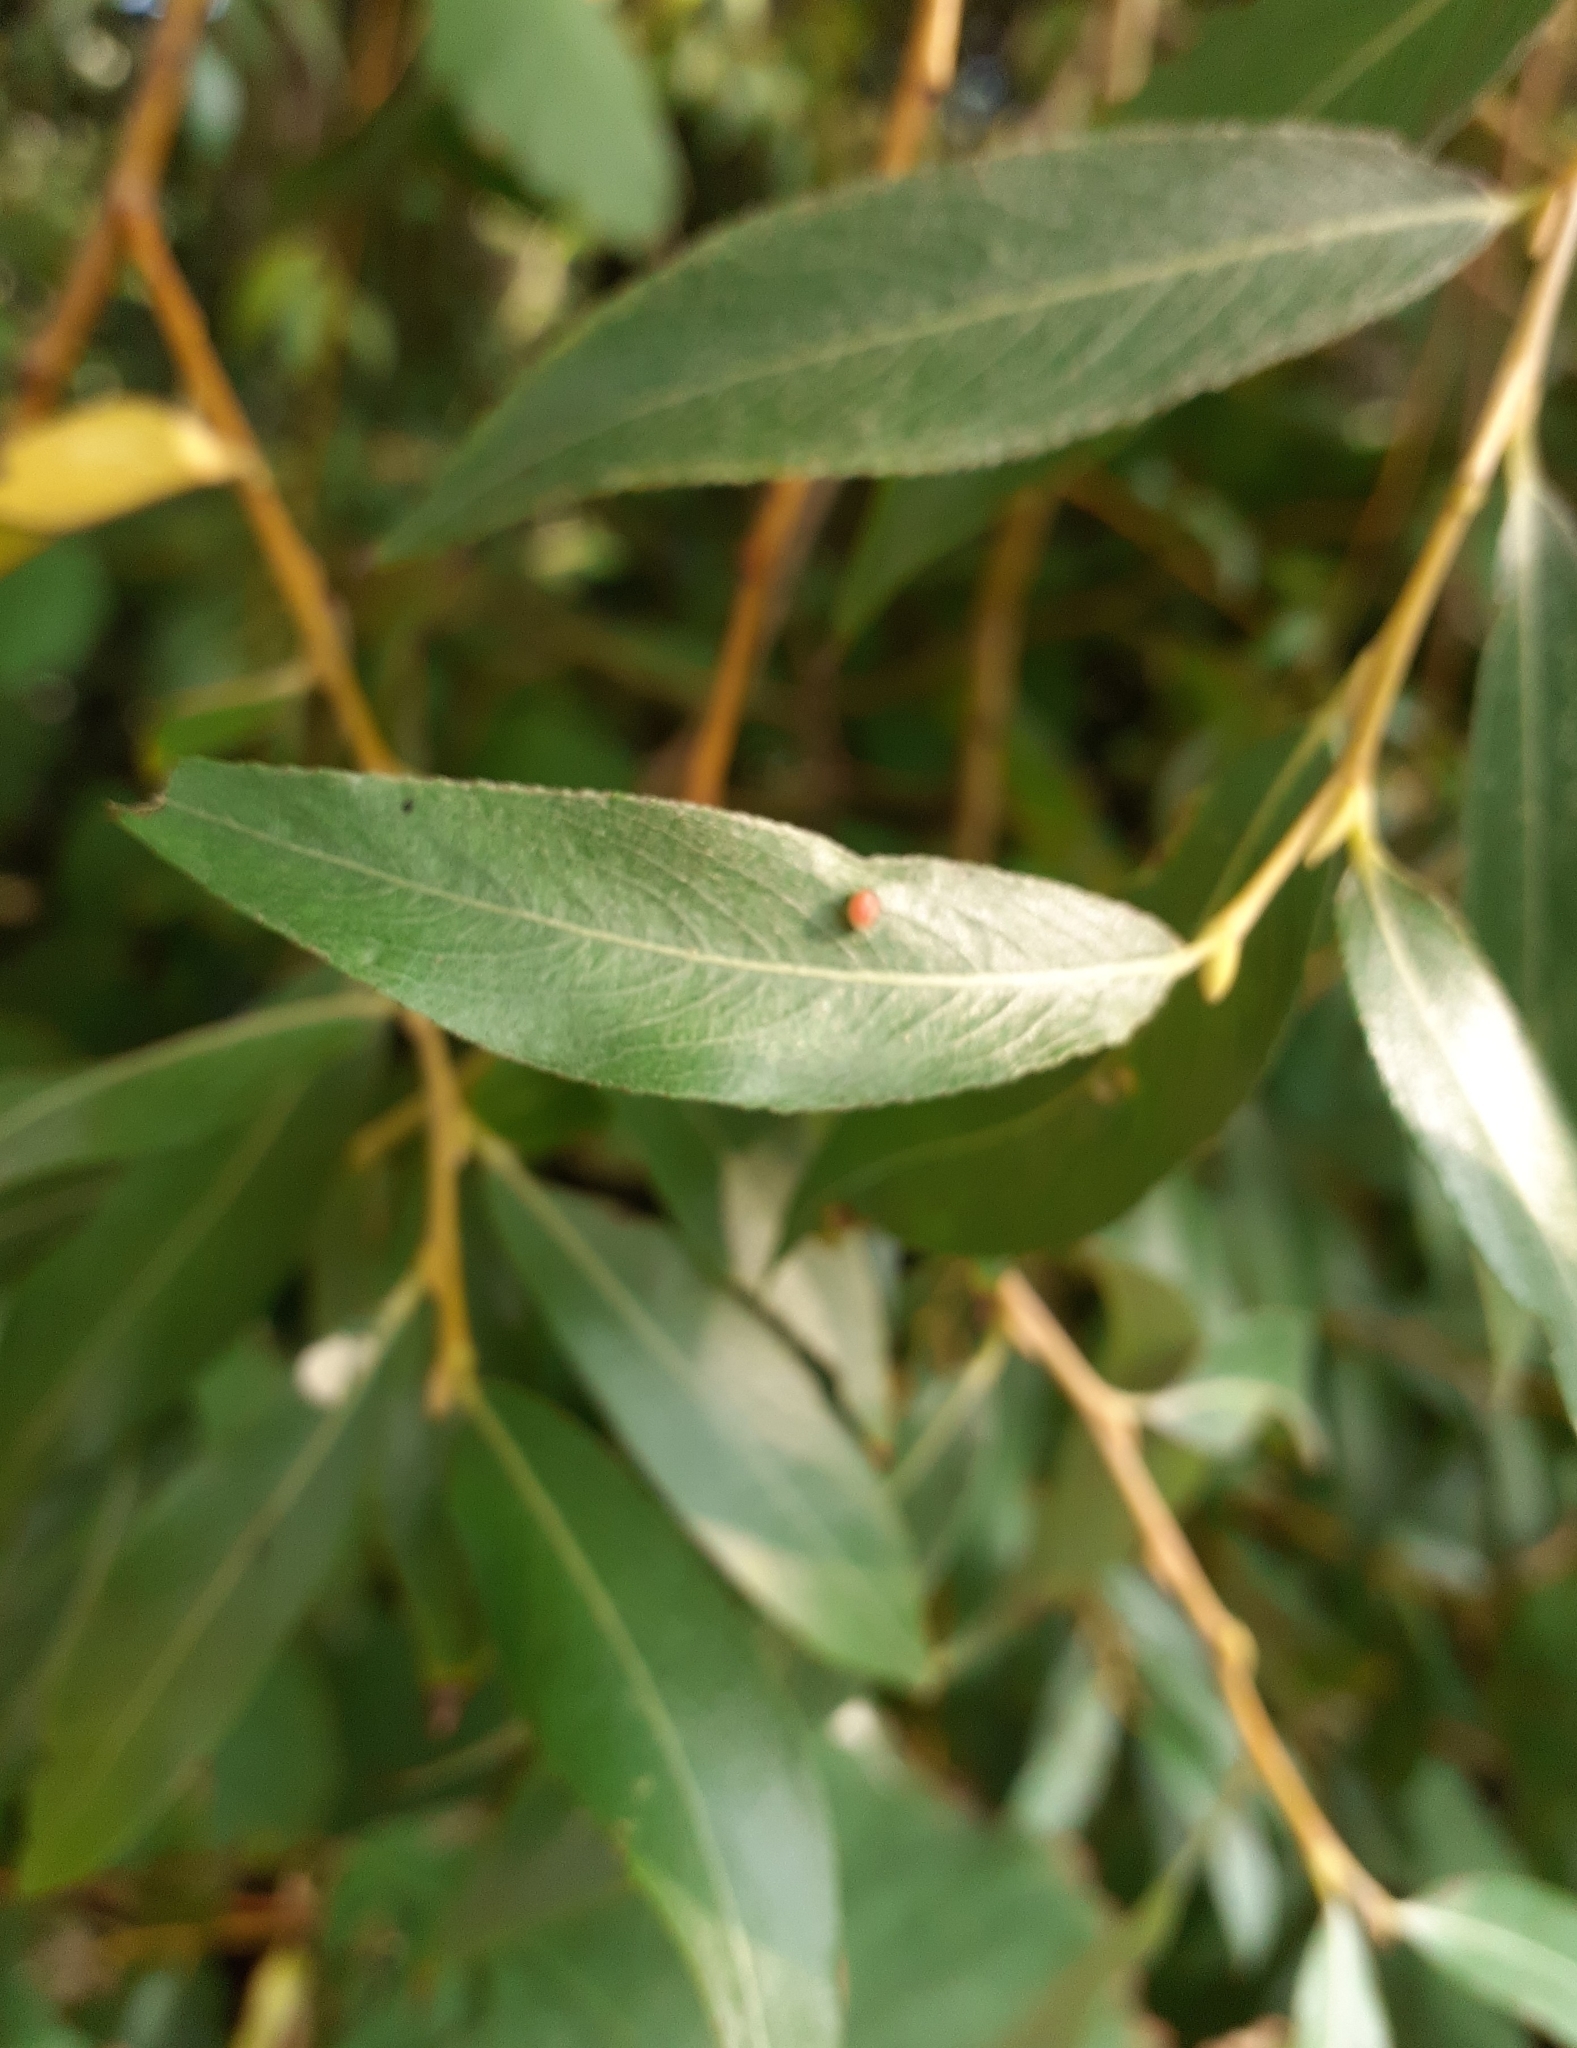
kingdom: Animalia
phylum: Arthropoda
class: Arachnida
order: Trombidiformes
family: Eriophyidae
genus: Aculus
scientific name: Aculus tetanothrix
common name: Willow bead gall mite
